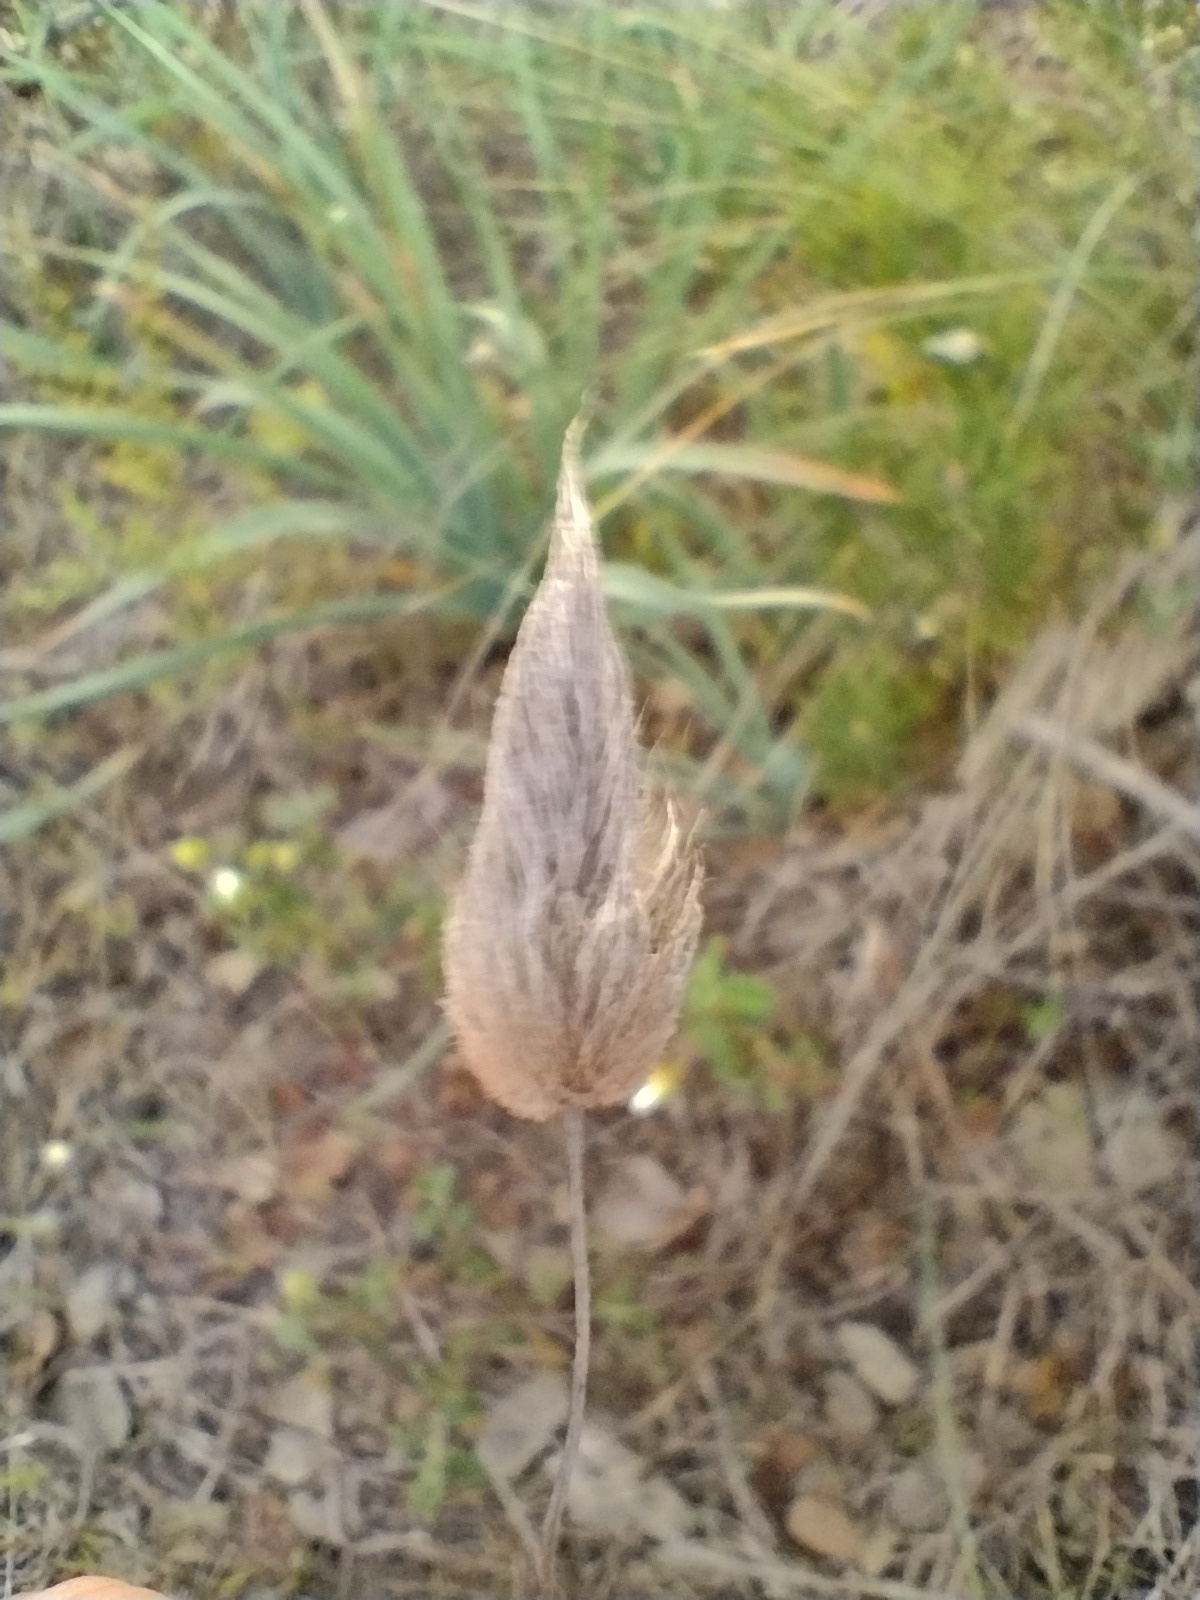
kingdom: Plantae
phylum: Tracheophyta
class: Liliopsida
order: Poales
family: Poaceae
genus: Lagurus
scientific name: Lagurus ovatus
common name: Hare's-tail
